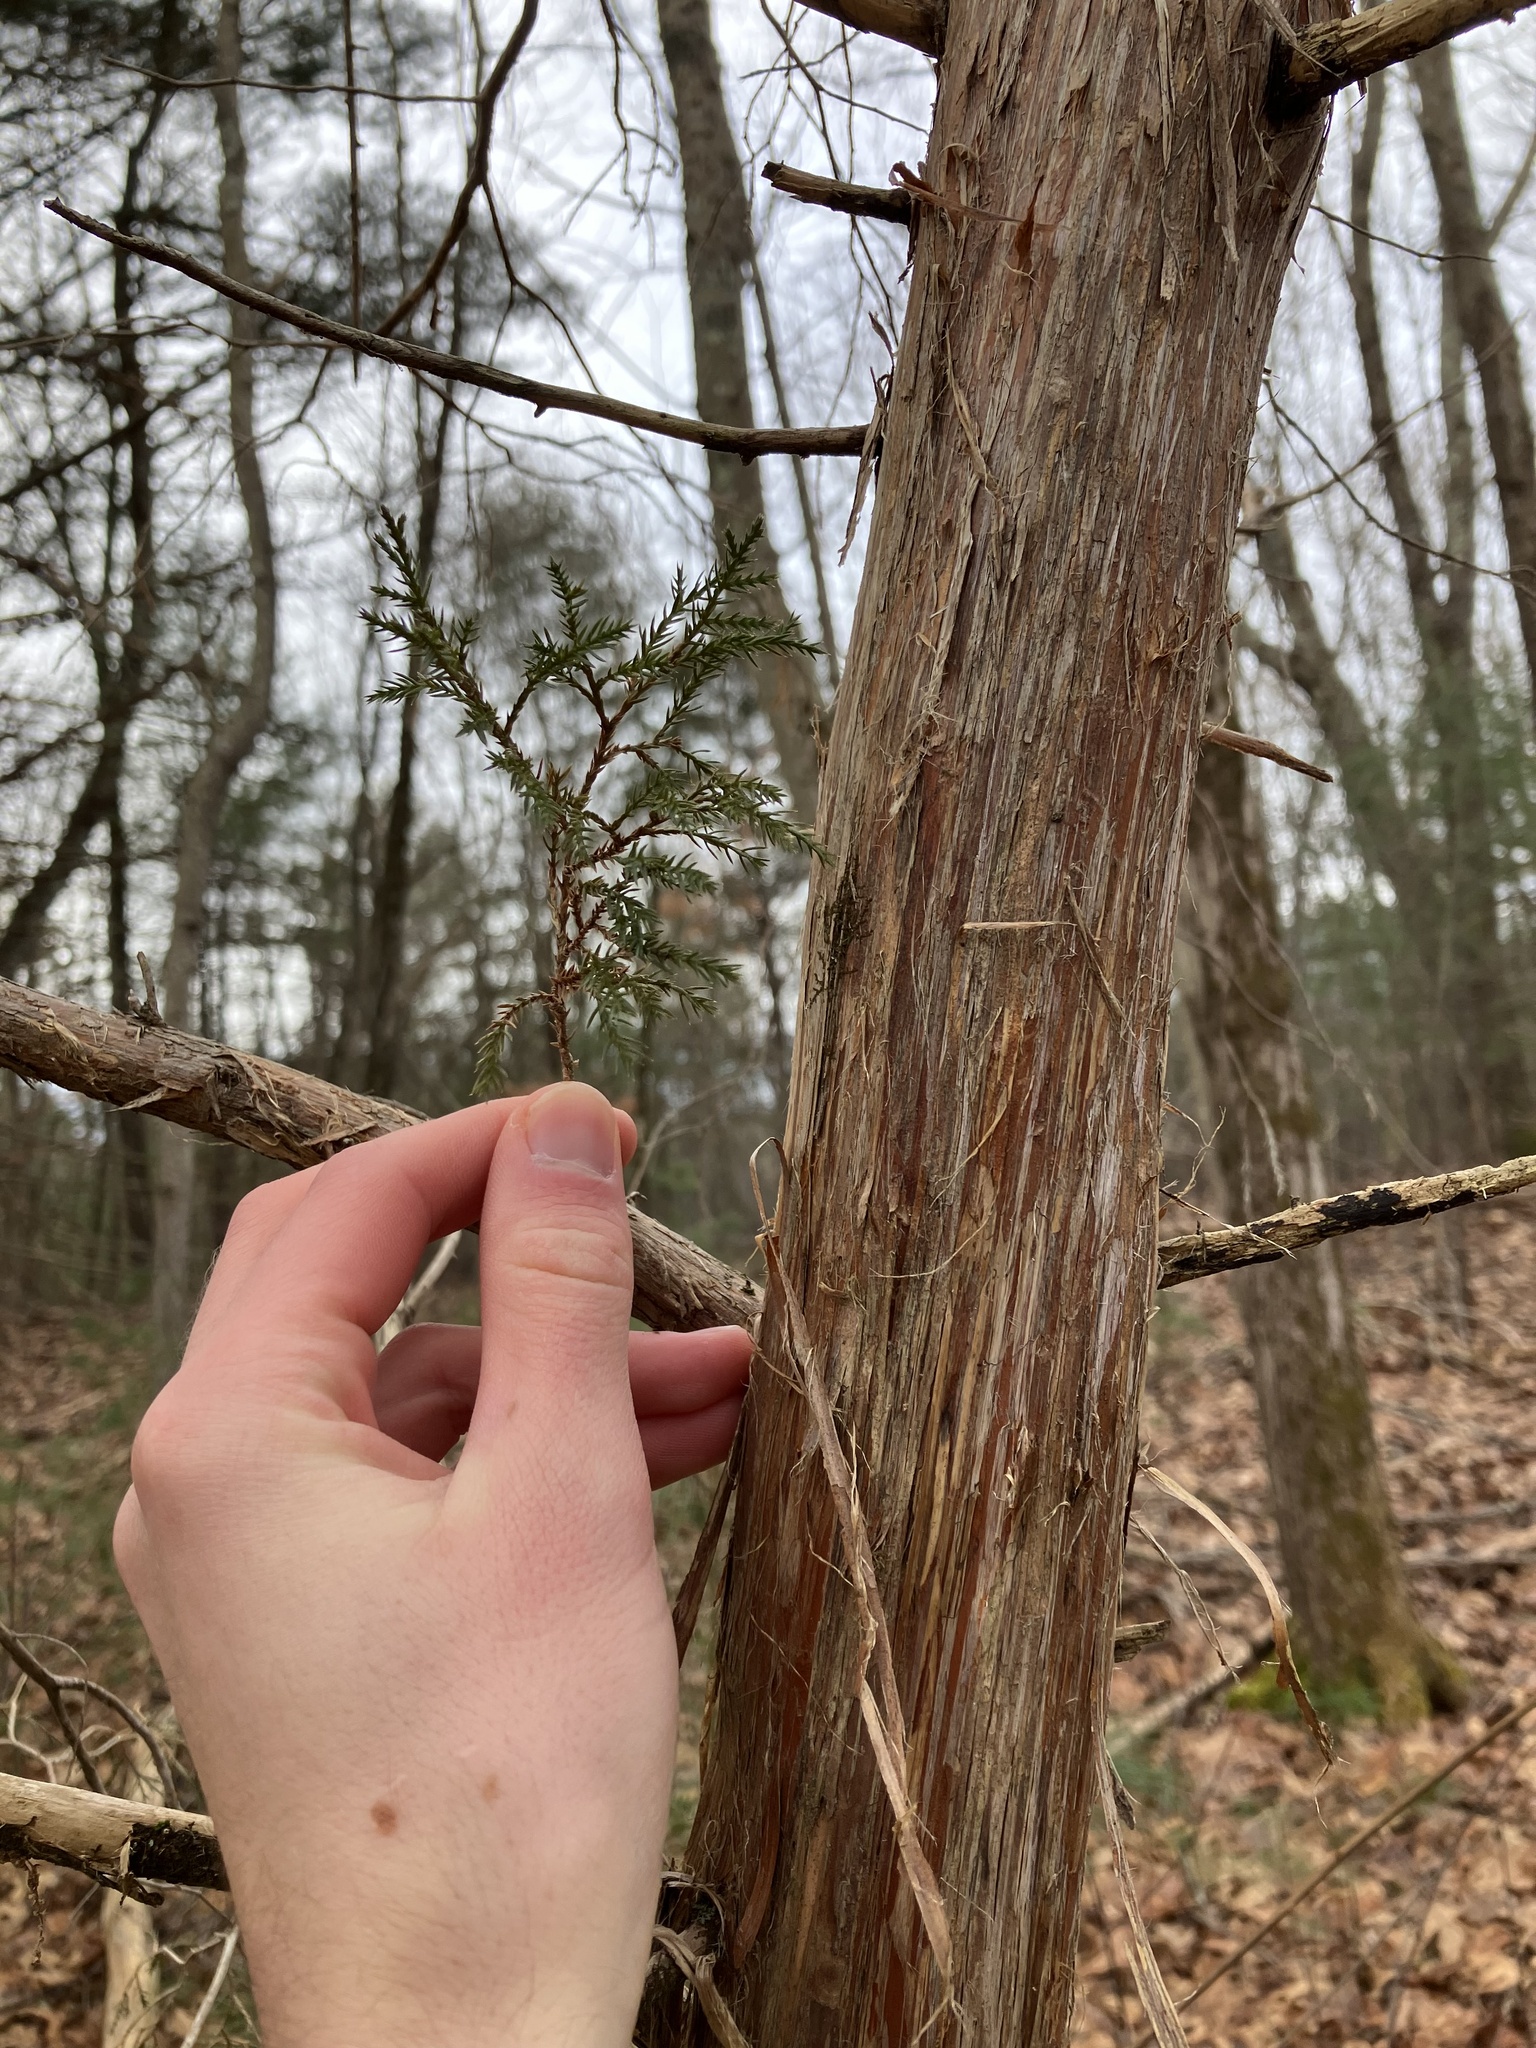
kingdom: Plantae
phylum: Tracheophyta
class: Pinopsida
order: Pinales
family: Cupressaceae
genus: Juniperus
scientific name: Juniperus virginiana
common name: Red juniper
